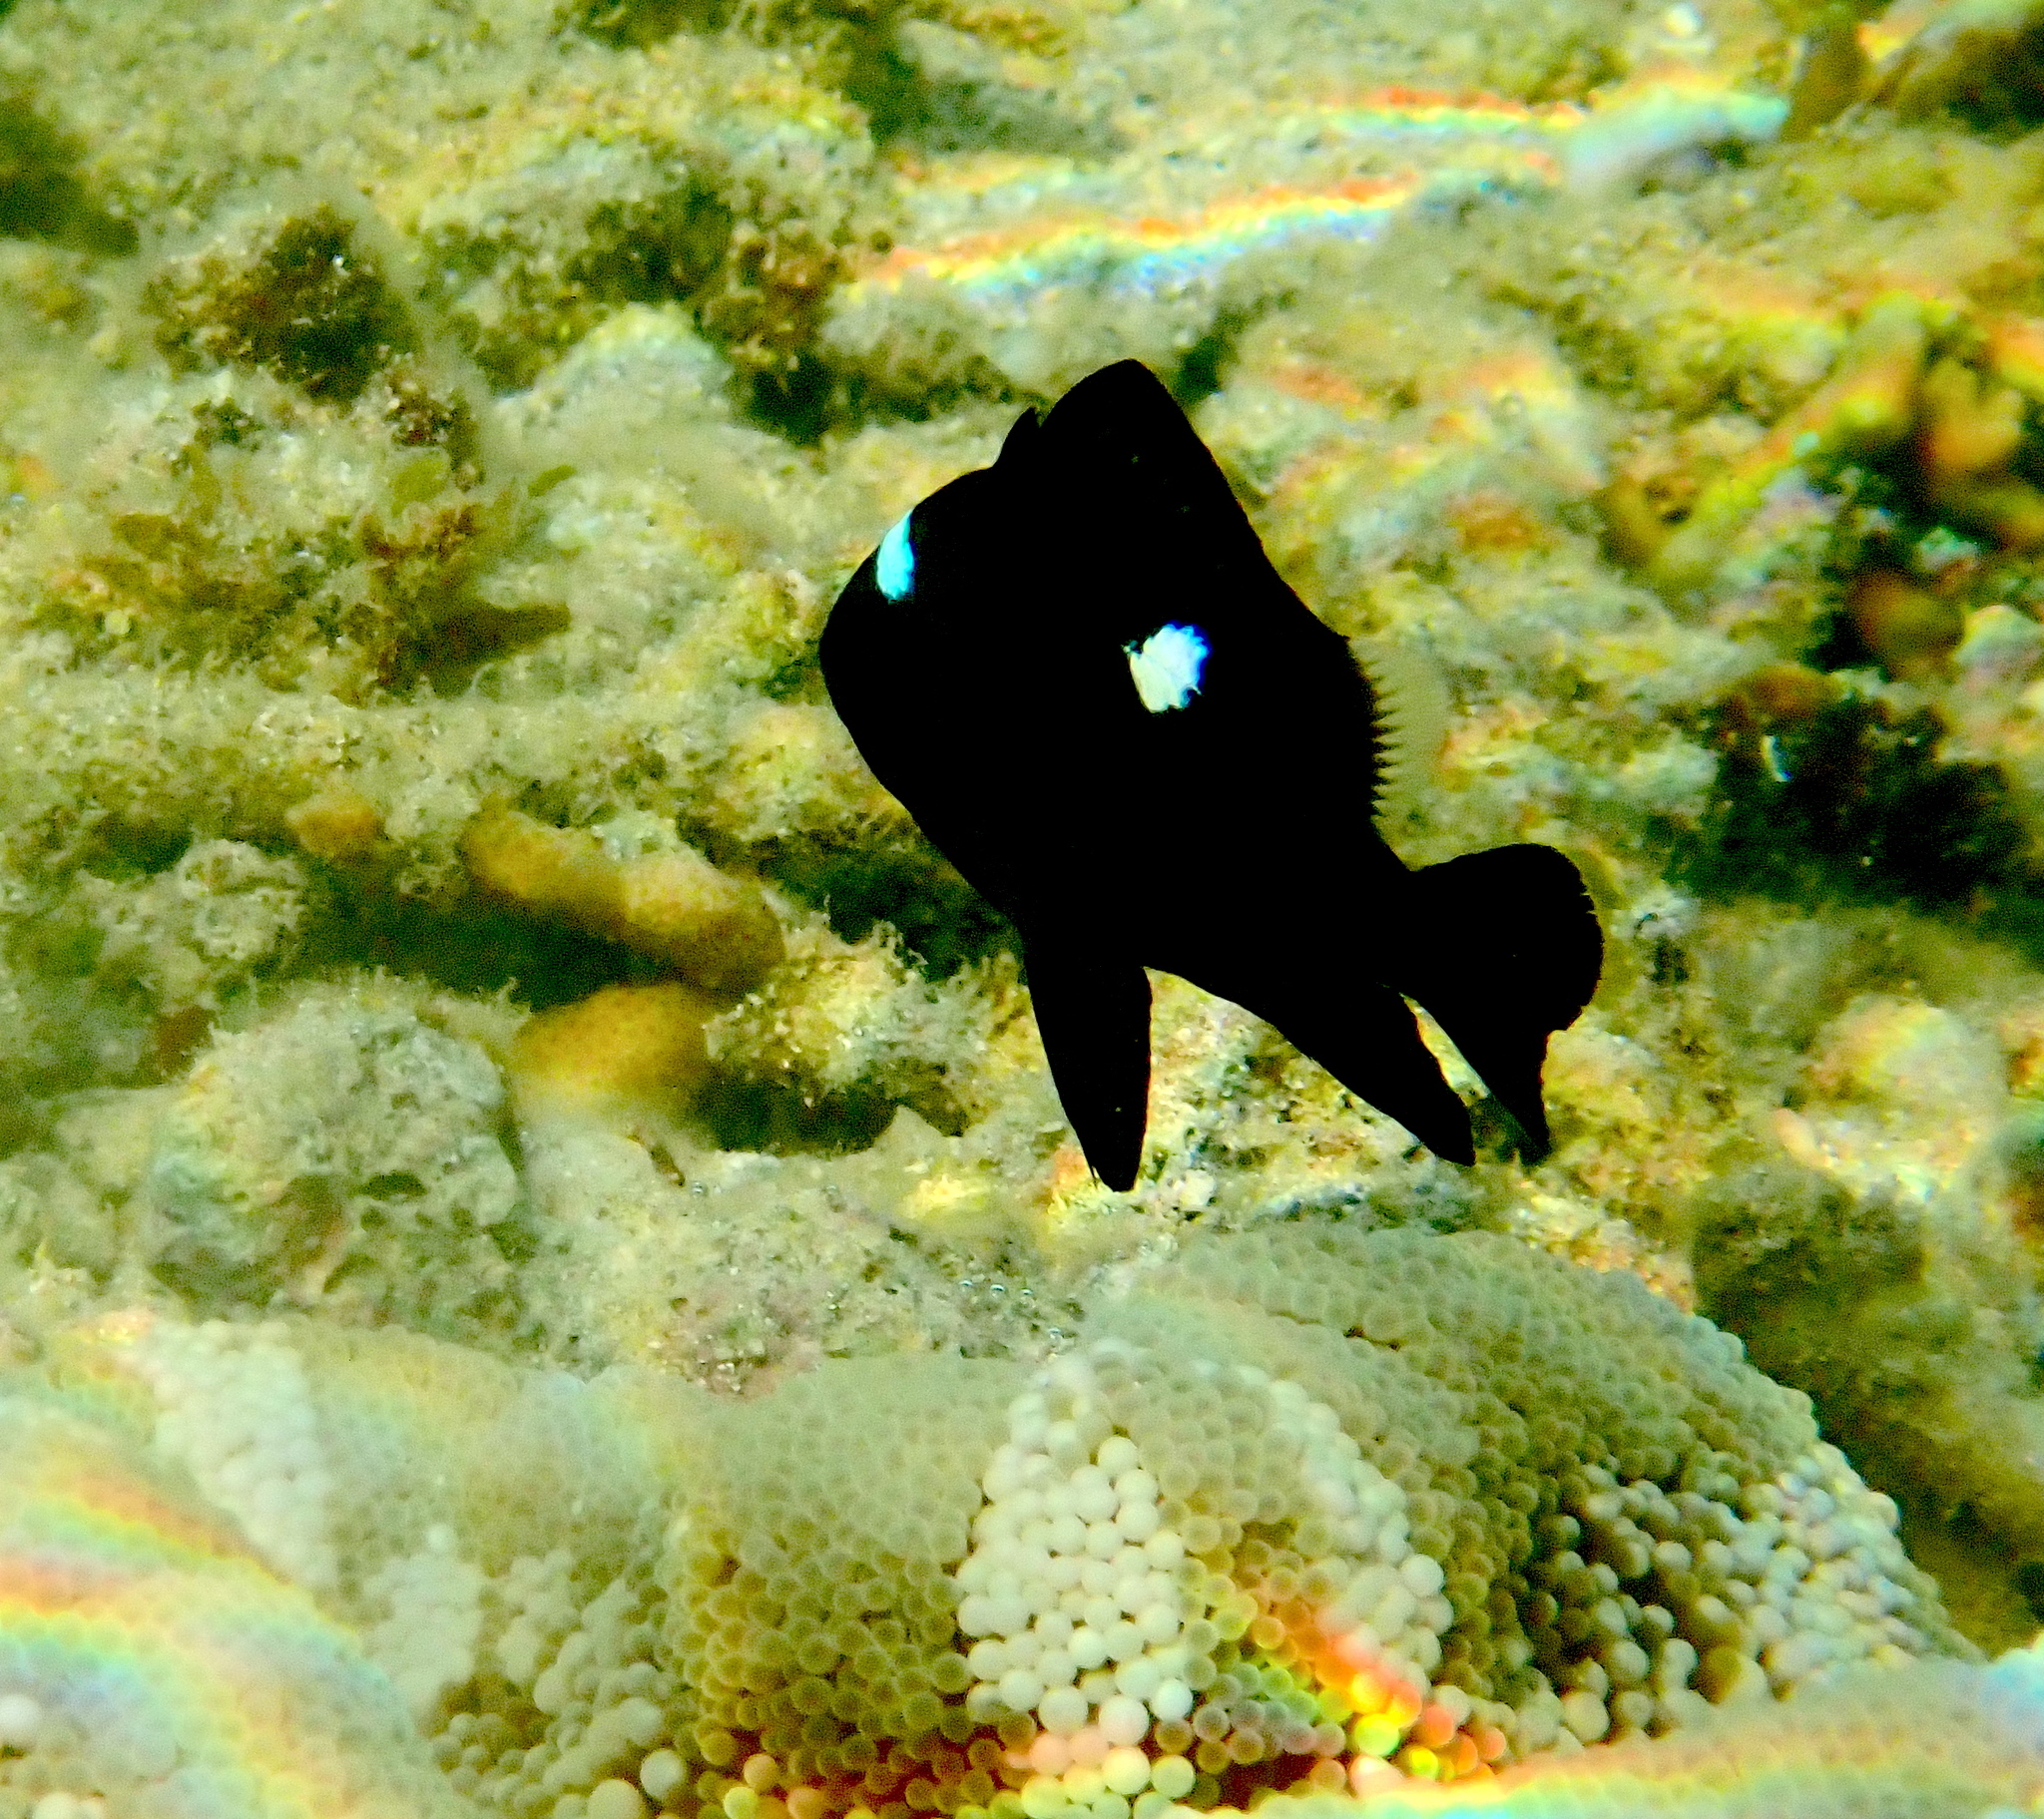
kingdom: Animalia
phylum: Chordata
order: Perciformes
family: Pomacentridae
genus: Dascyllus
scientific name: Dascyllus trimaculatus
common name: Threespot dascyllus
